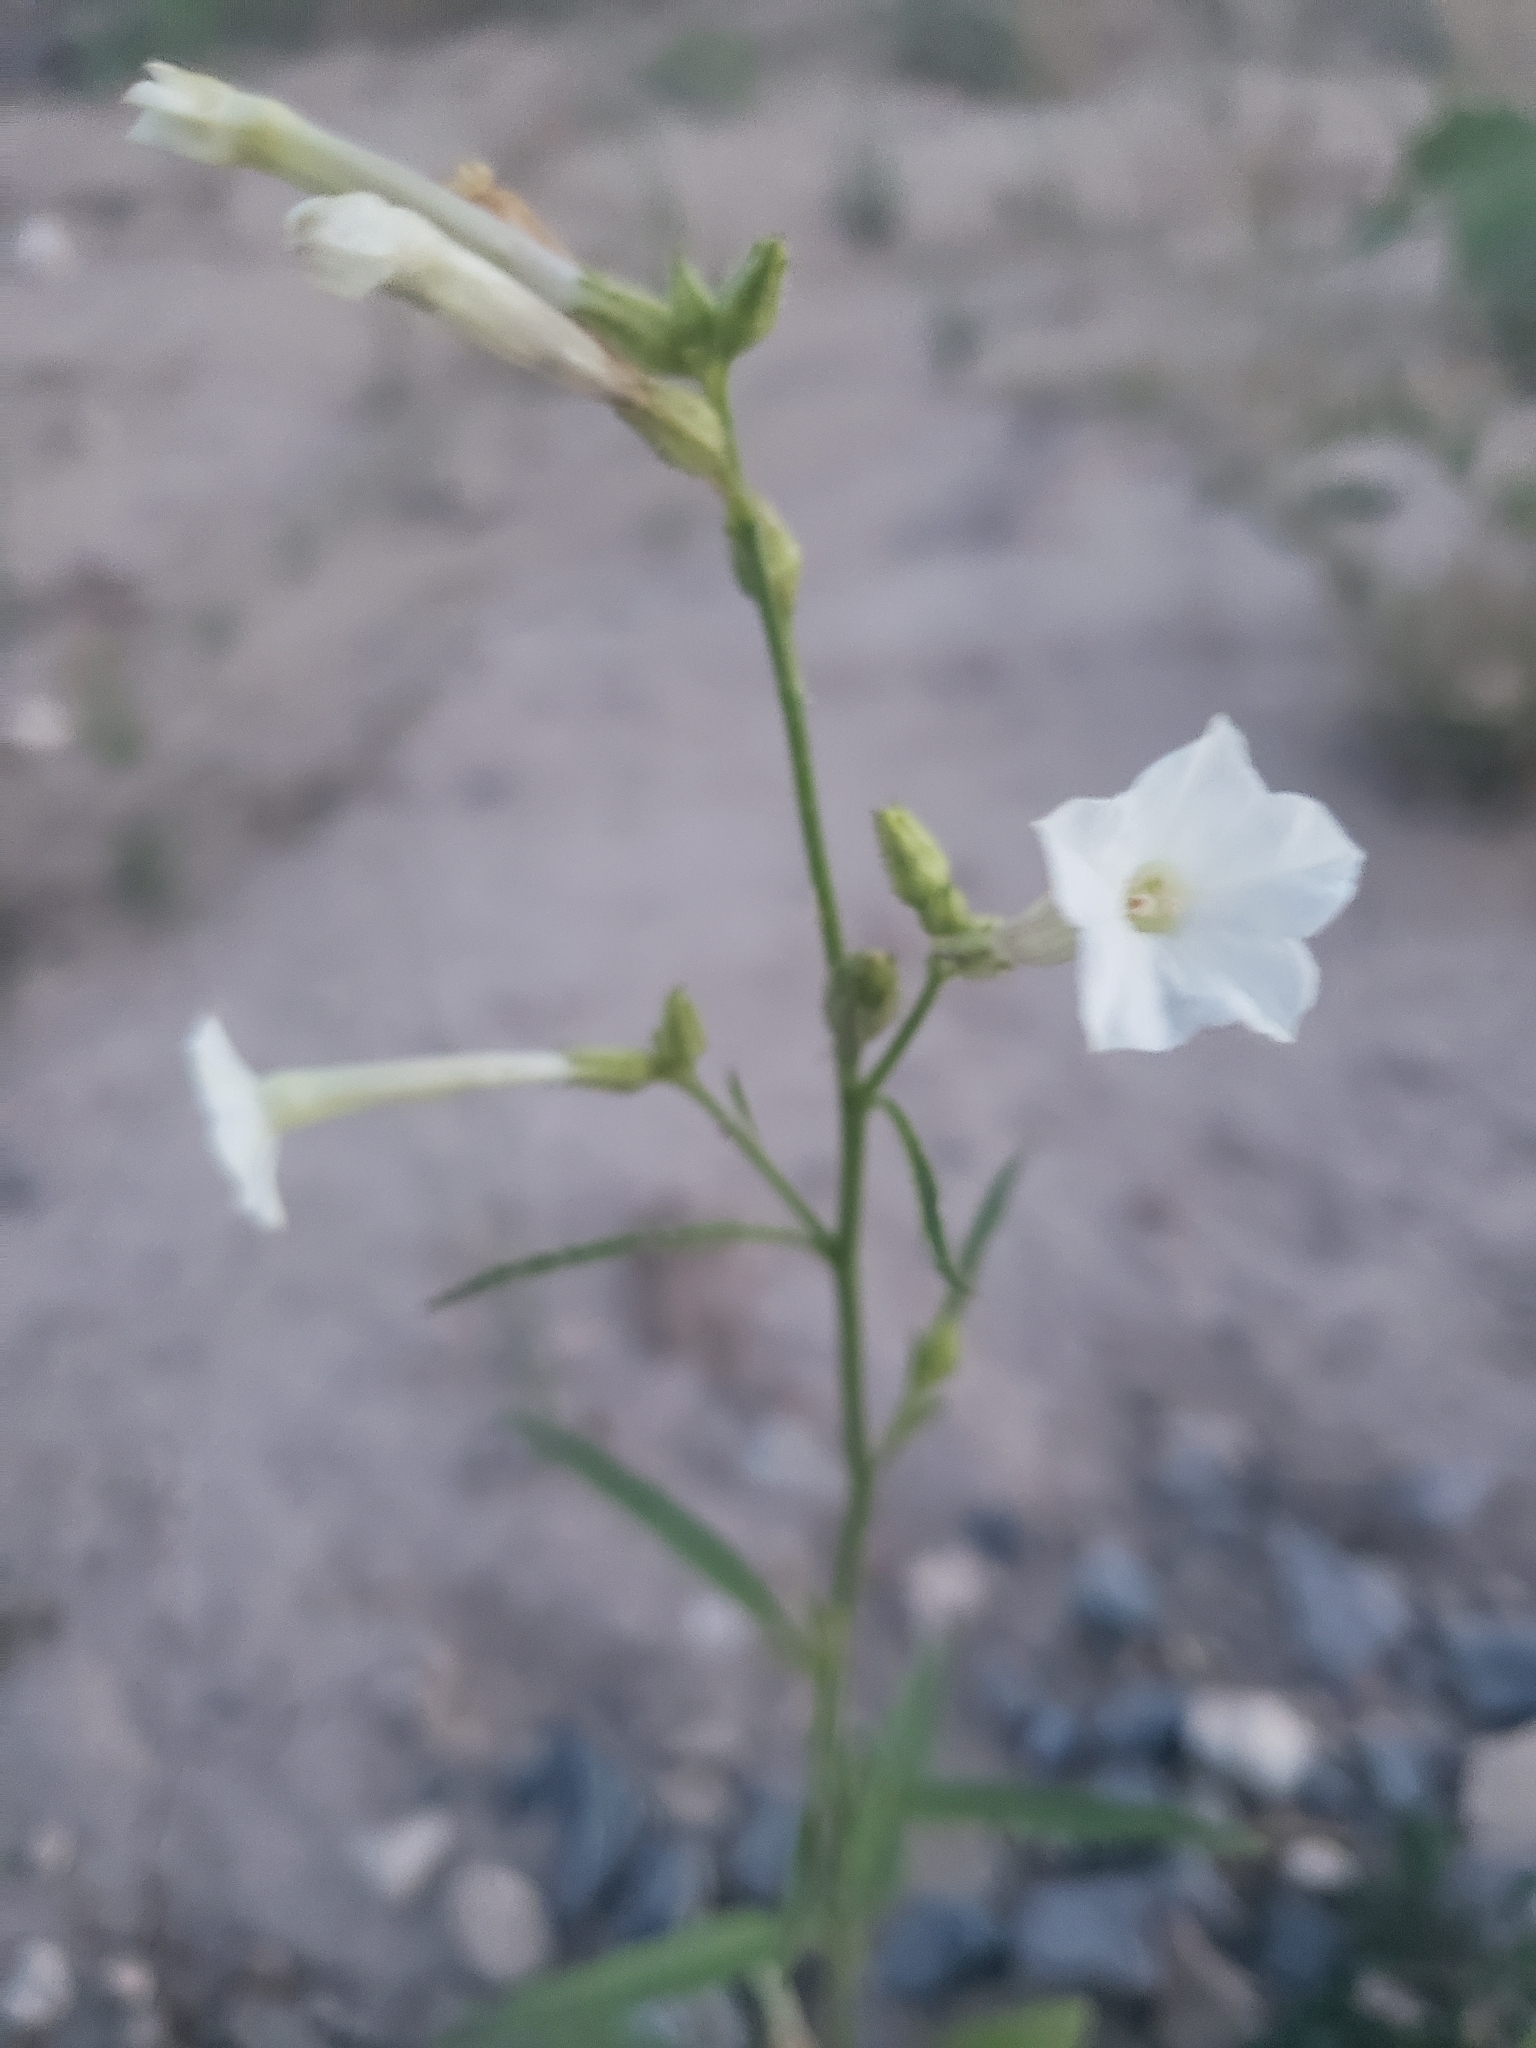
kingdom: Plantae
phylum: Tracheophyta
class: Magnoliopsida
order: Solanales
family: Solanaceae
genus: Nicotiana
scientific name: Nicotiana attenuata
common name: Coyote tobacco
